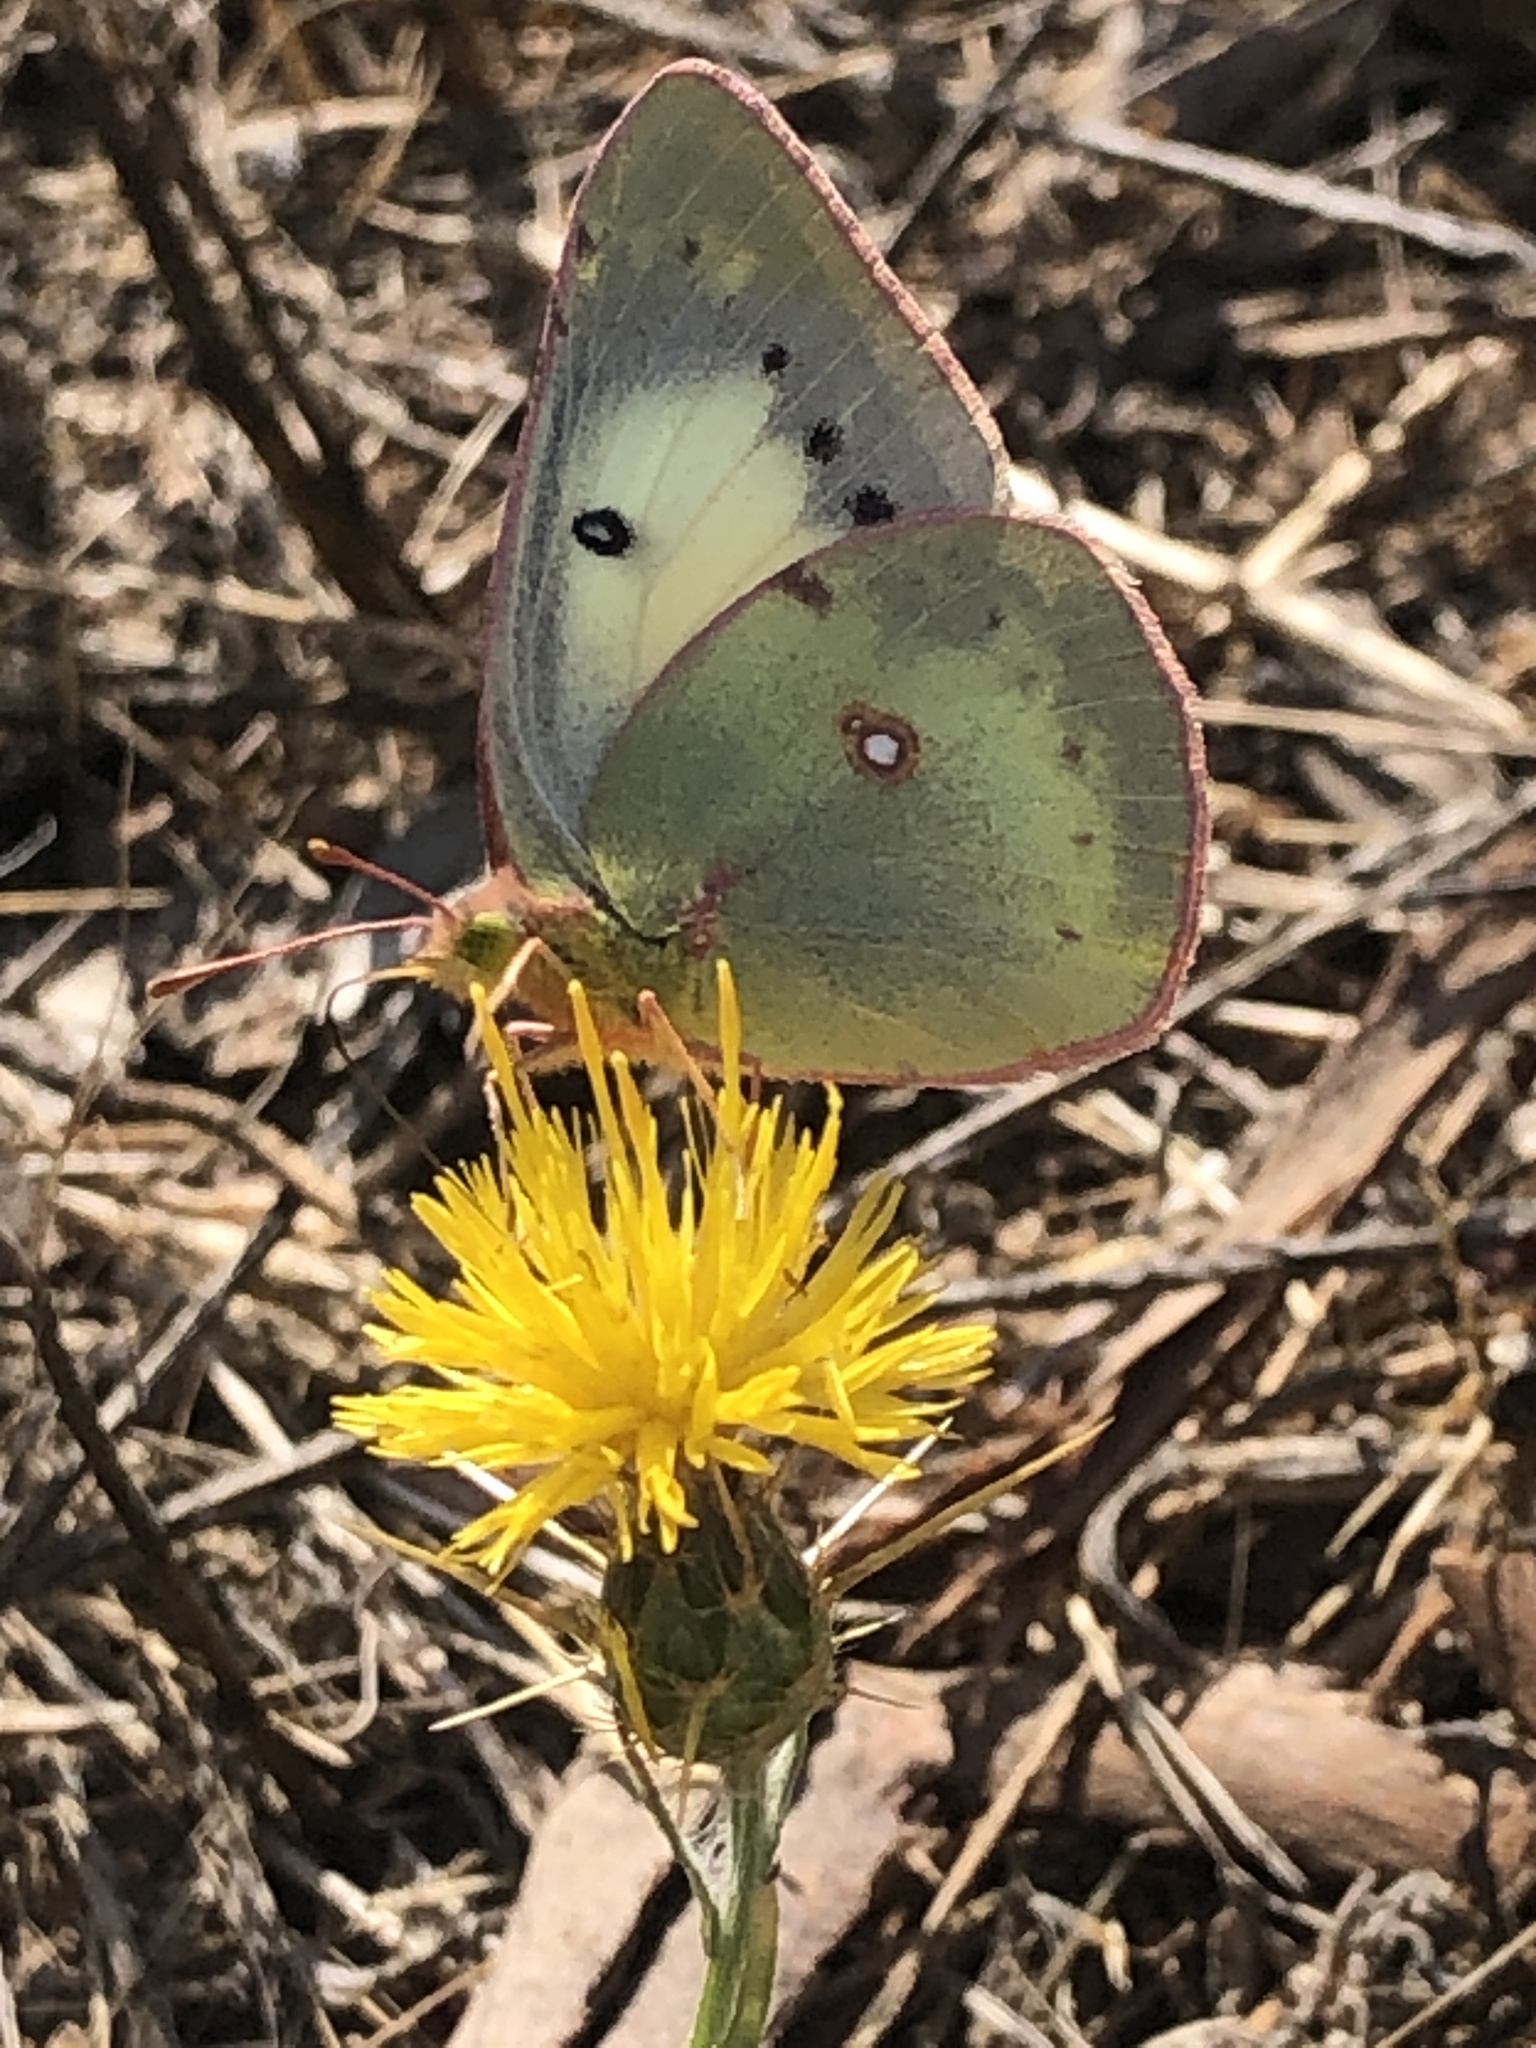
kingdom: Animalia
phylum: Arthropoda
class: Insecta
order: Lepidoptera
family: Pieridae
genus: Colias
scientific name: Colias eurytheme
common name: Alfalfa butterfly
